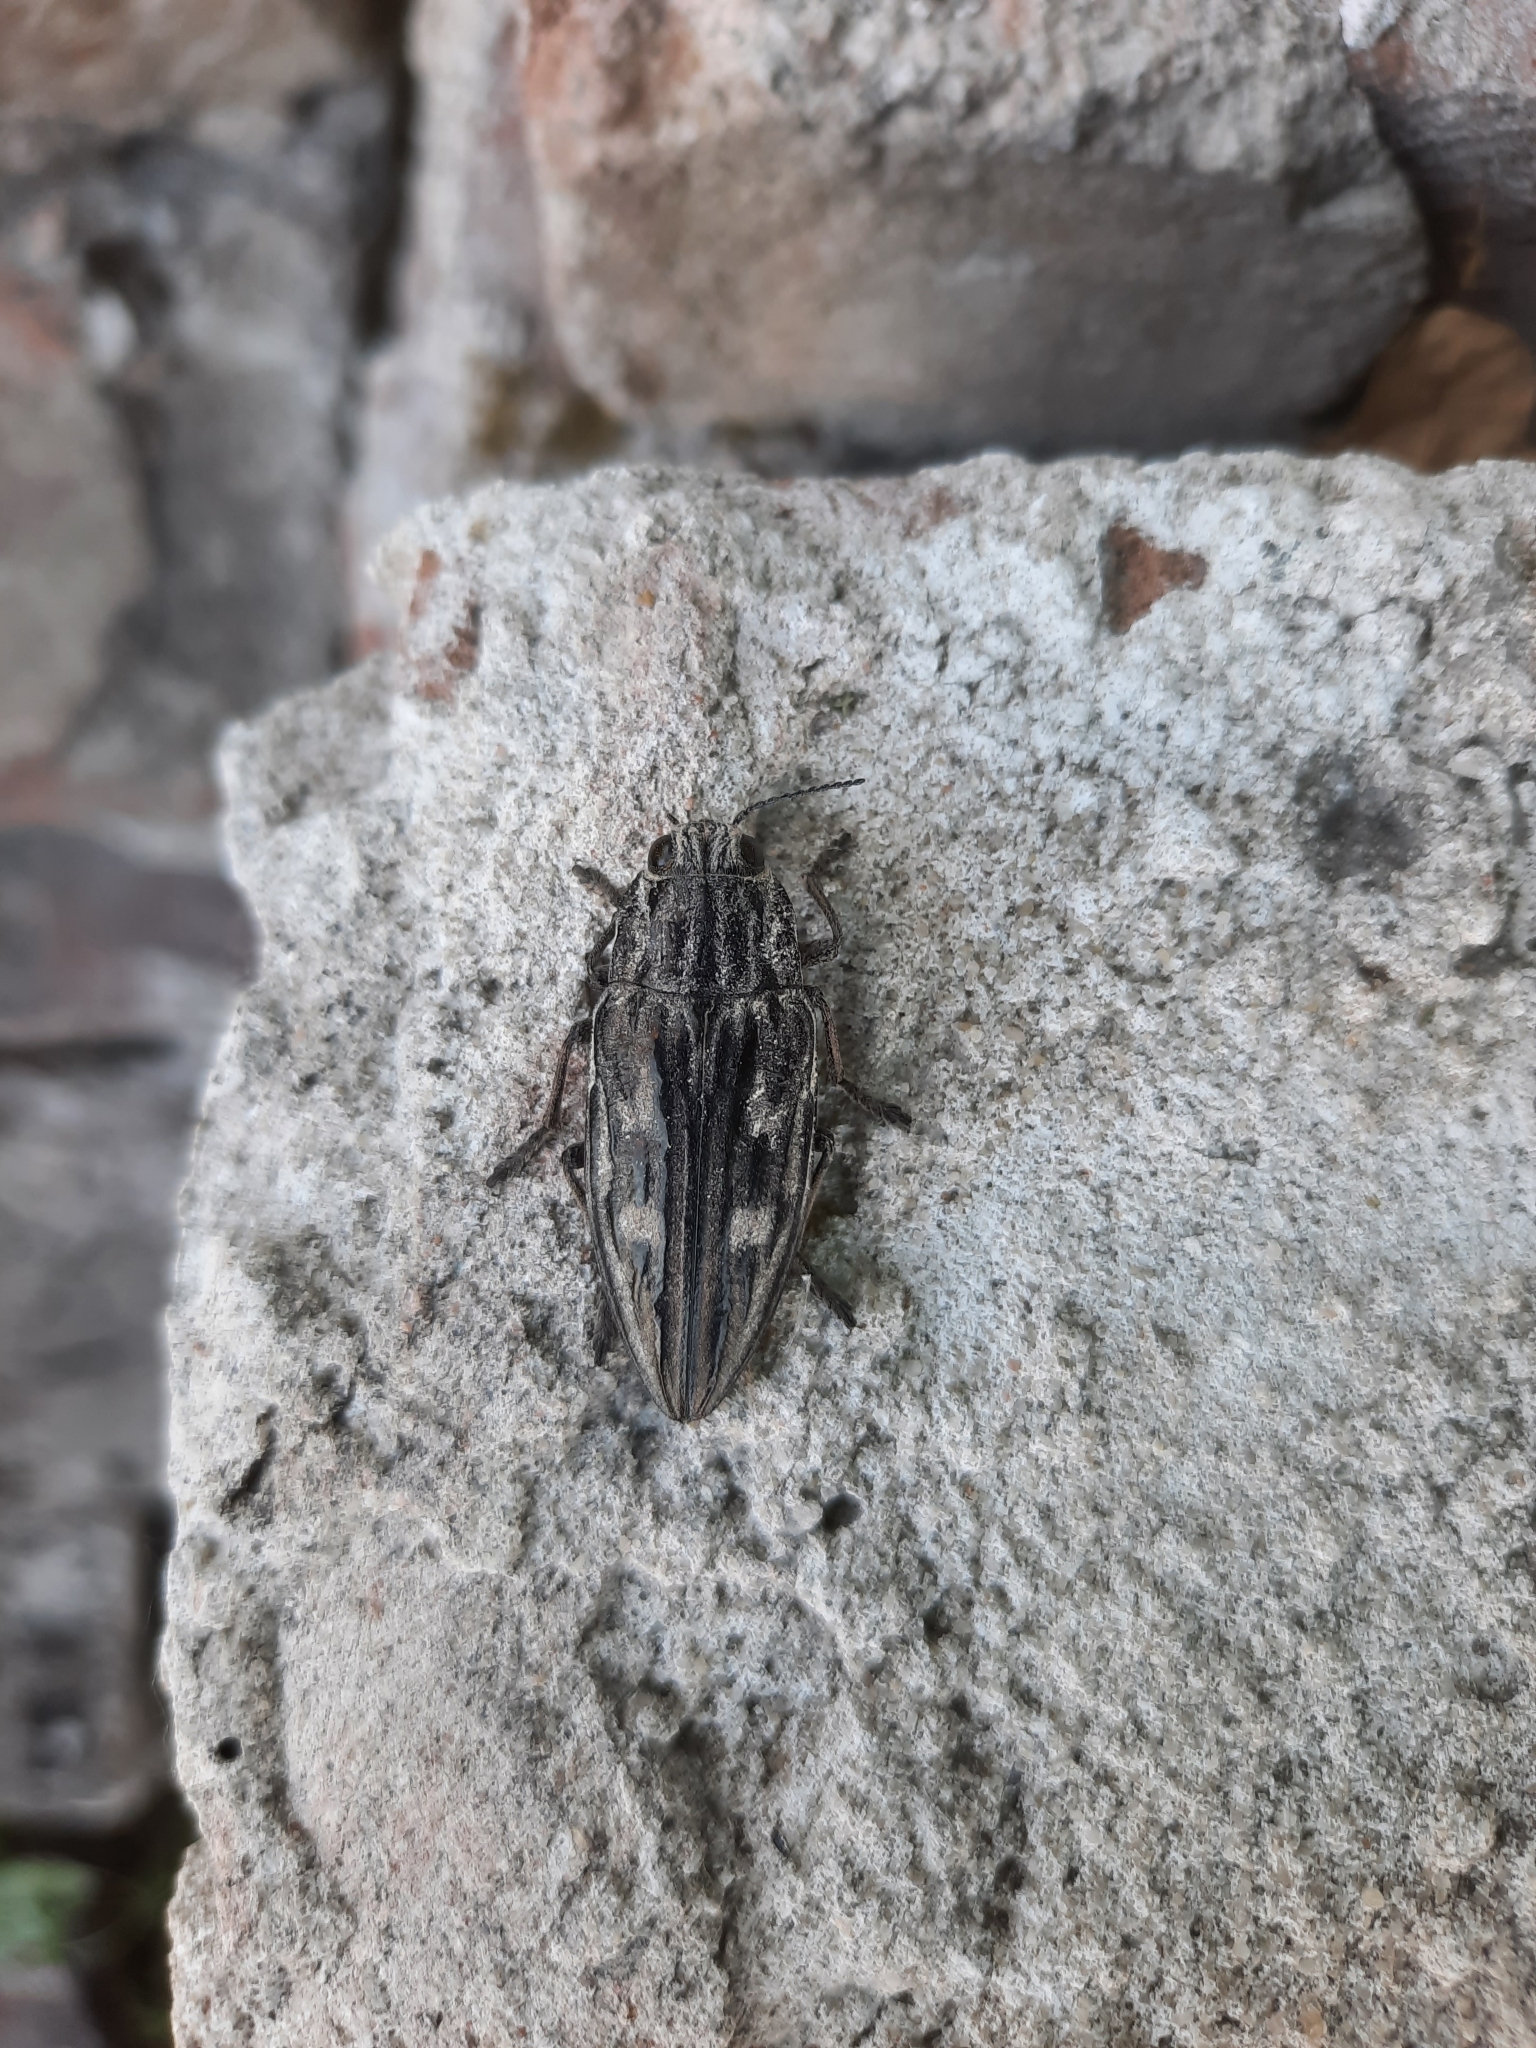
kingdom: Animalia
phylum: Arthropoda
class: Insecta
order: Coleoptera
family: Buprestidae
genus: Chalcophora
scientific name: Chalcophora mariana
